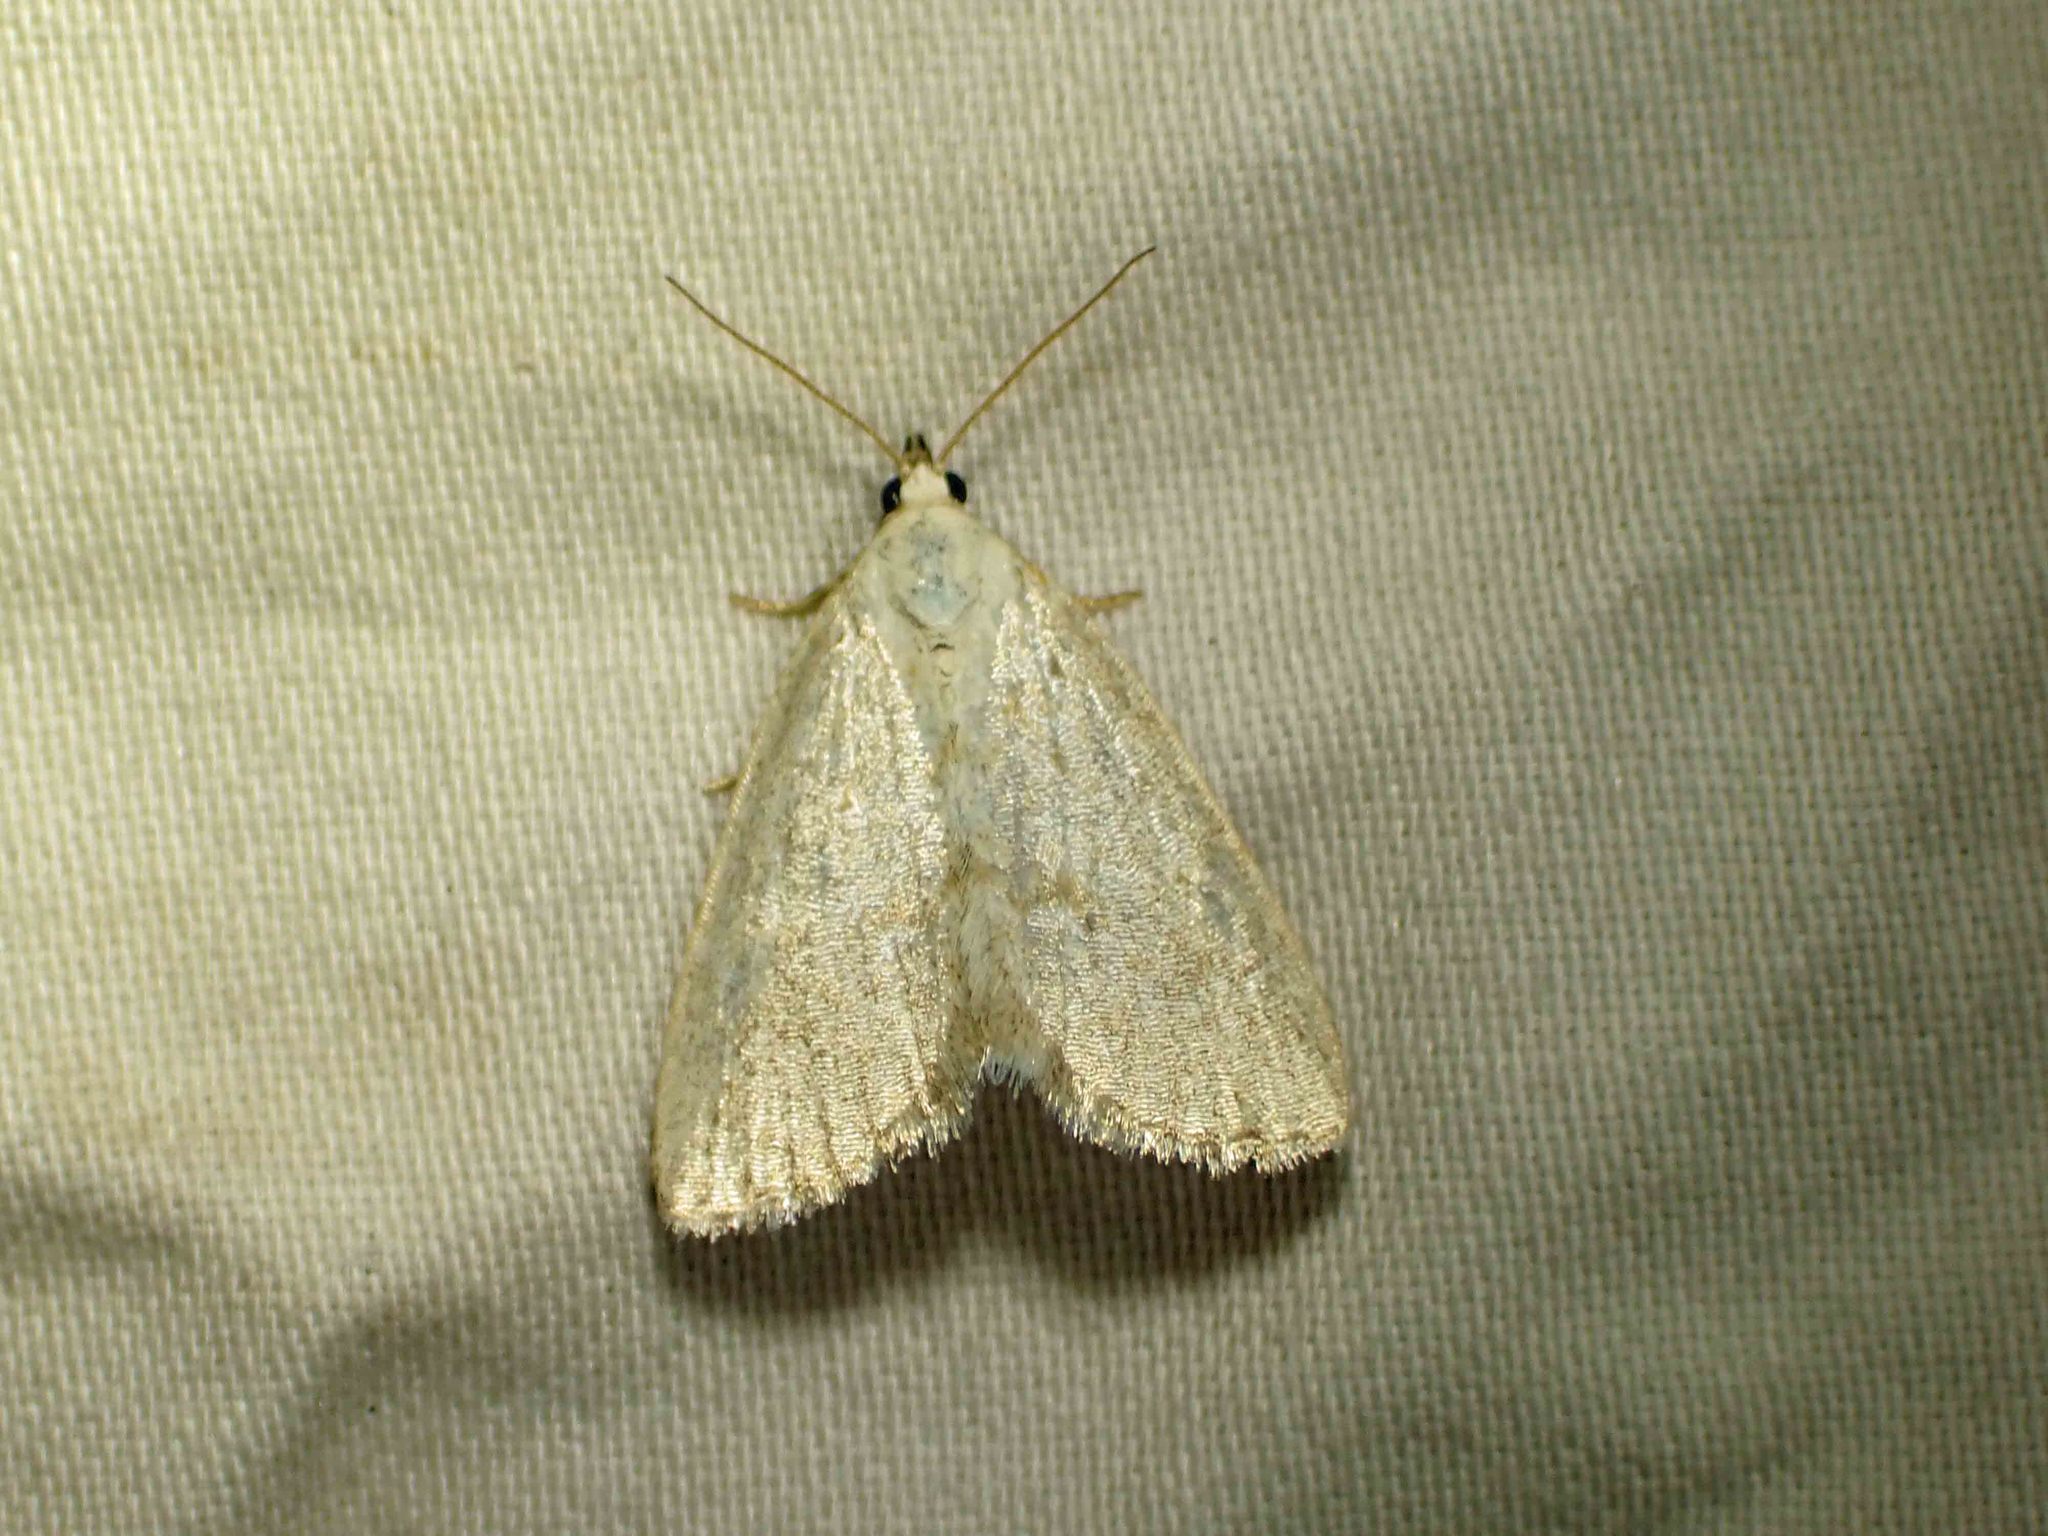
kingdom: Animalia
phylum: Arthropoda
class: Insecta
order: Lepidoptera
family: Noctuidae
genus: Protodeltote
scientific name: Protodeltote albidula
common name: Pale glyph
